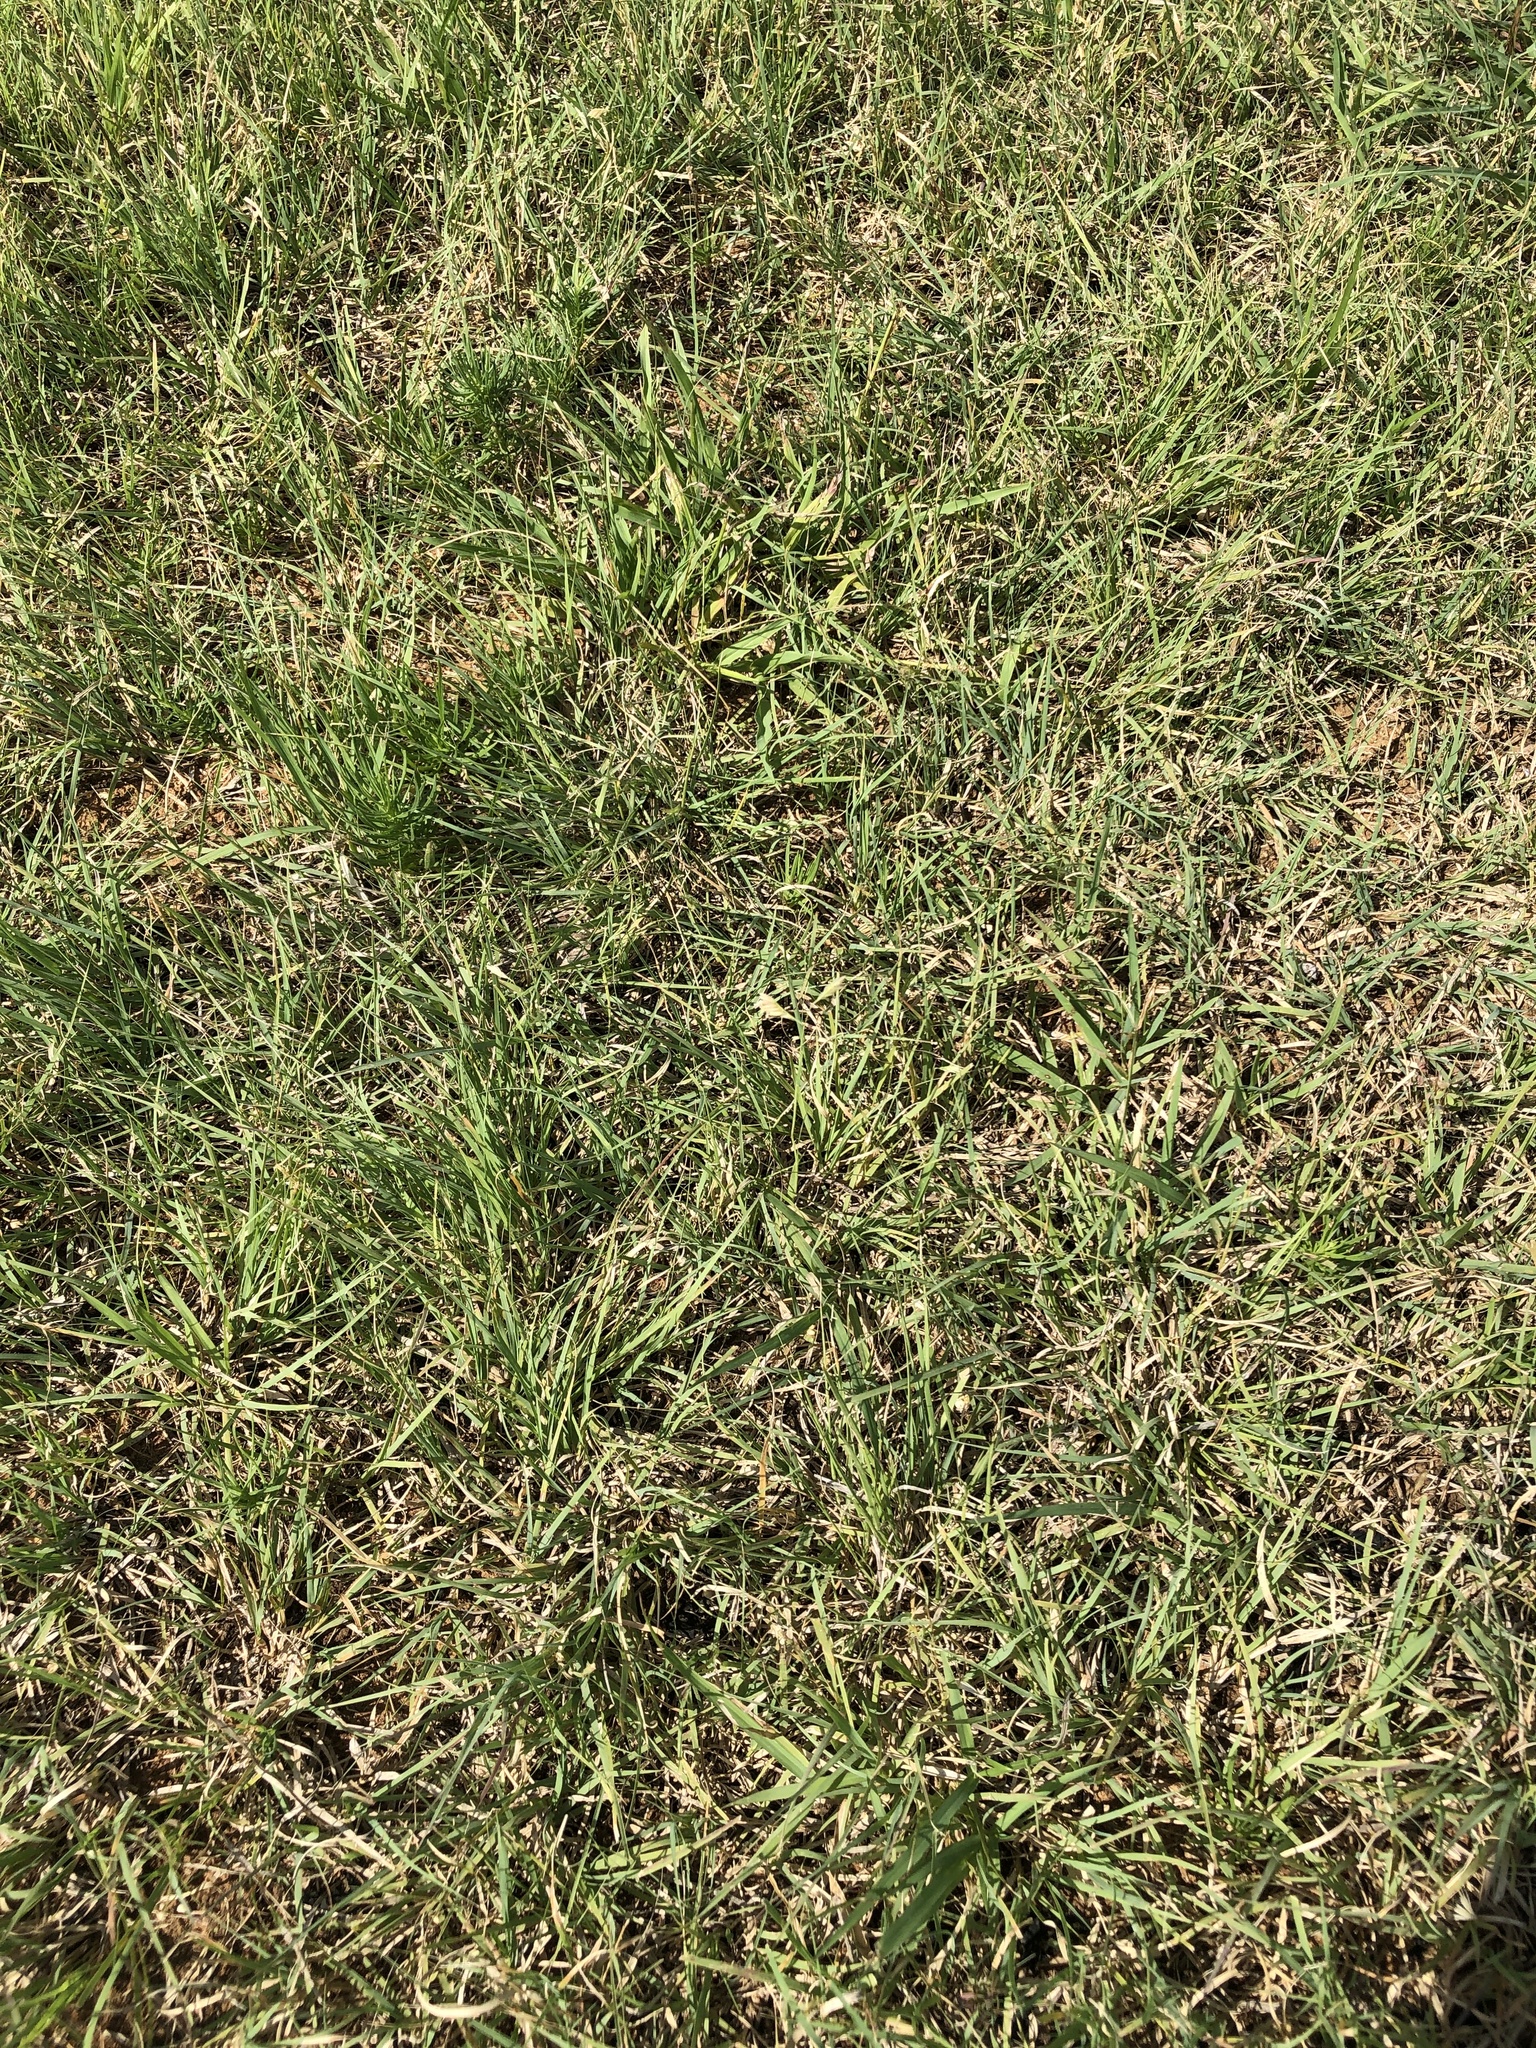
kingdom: Plantae
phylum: Tracheophyta
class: Liliopsida
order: Poales
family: Poaceae
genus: Bouteloua
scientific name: Bouteloua dactyloides
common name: Buffalo grass
